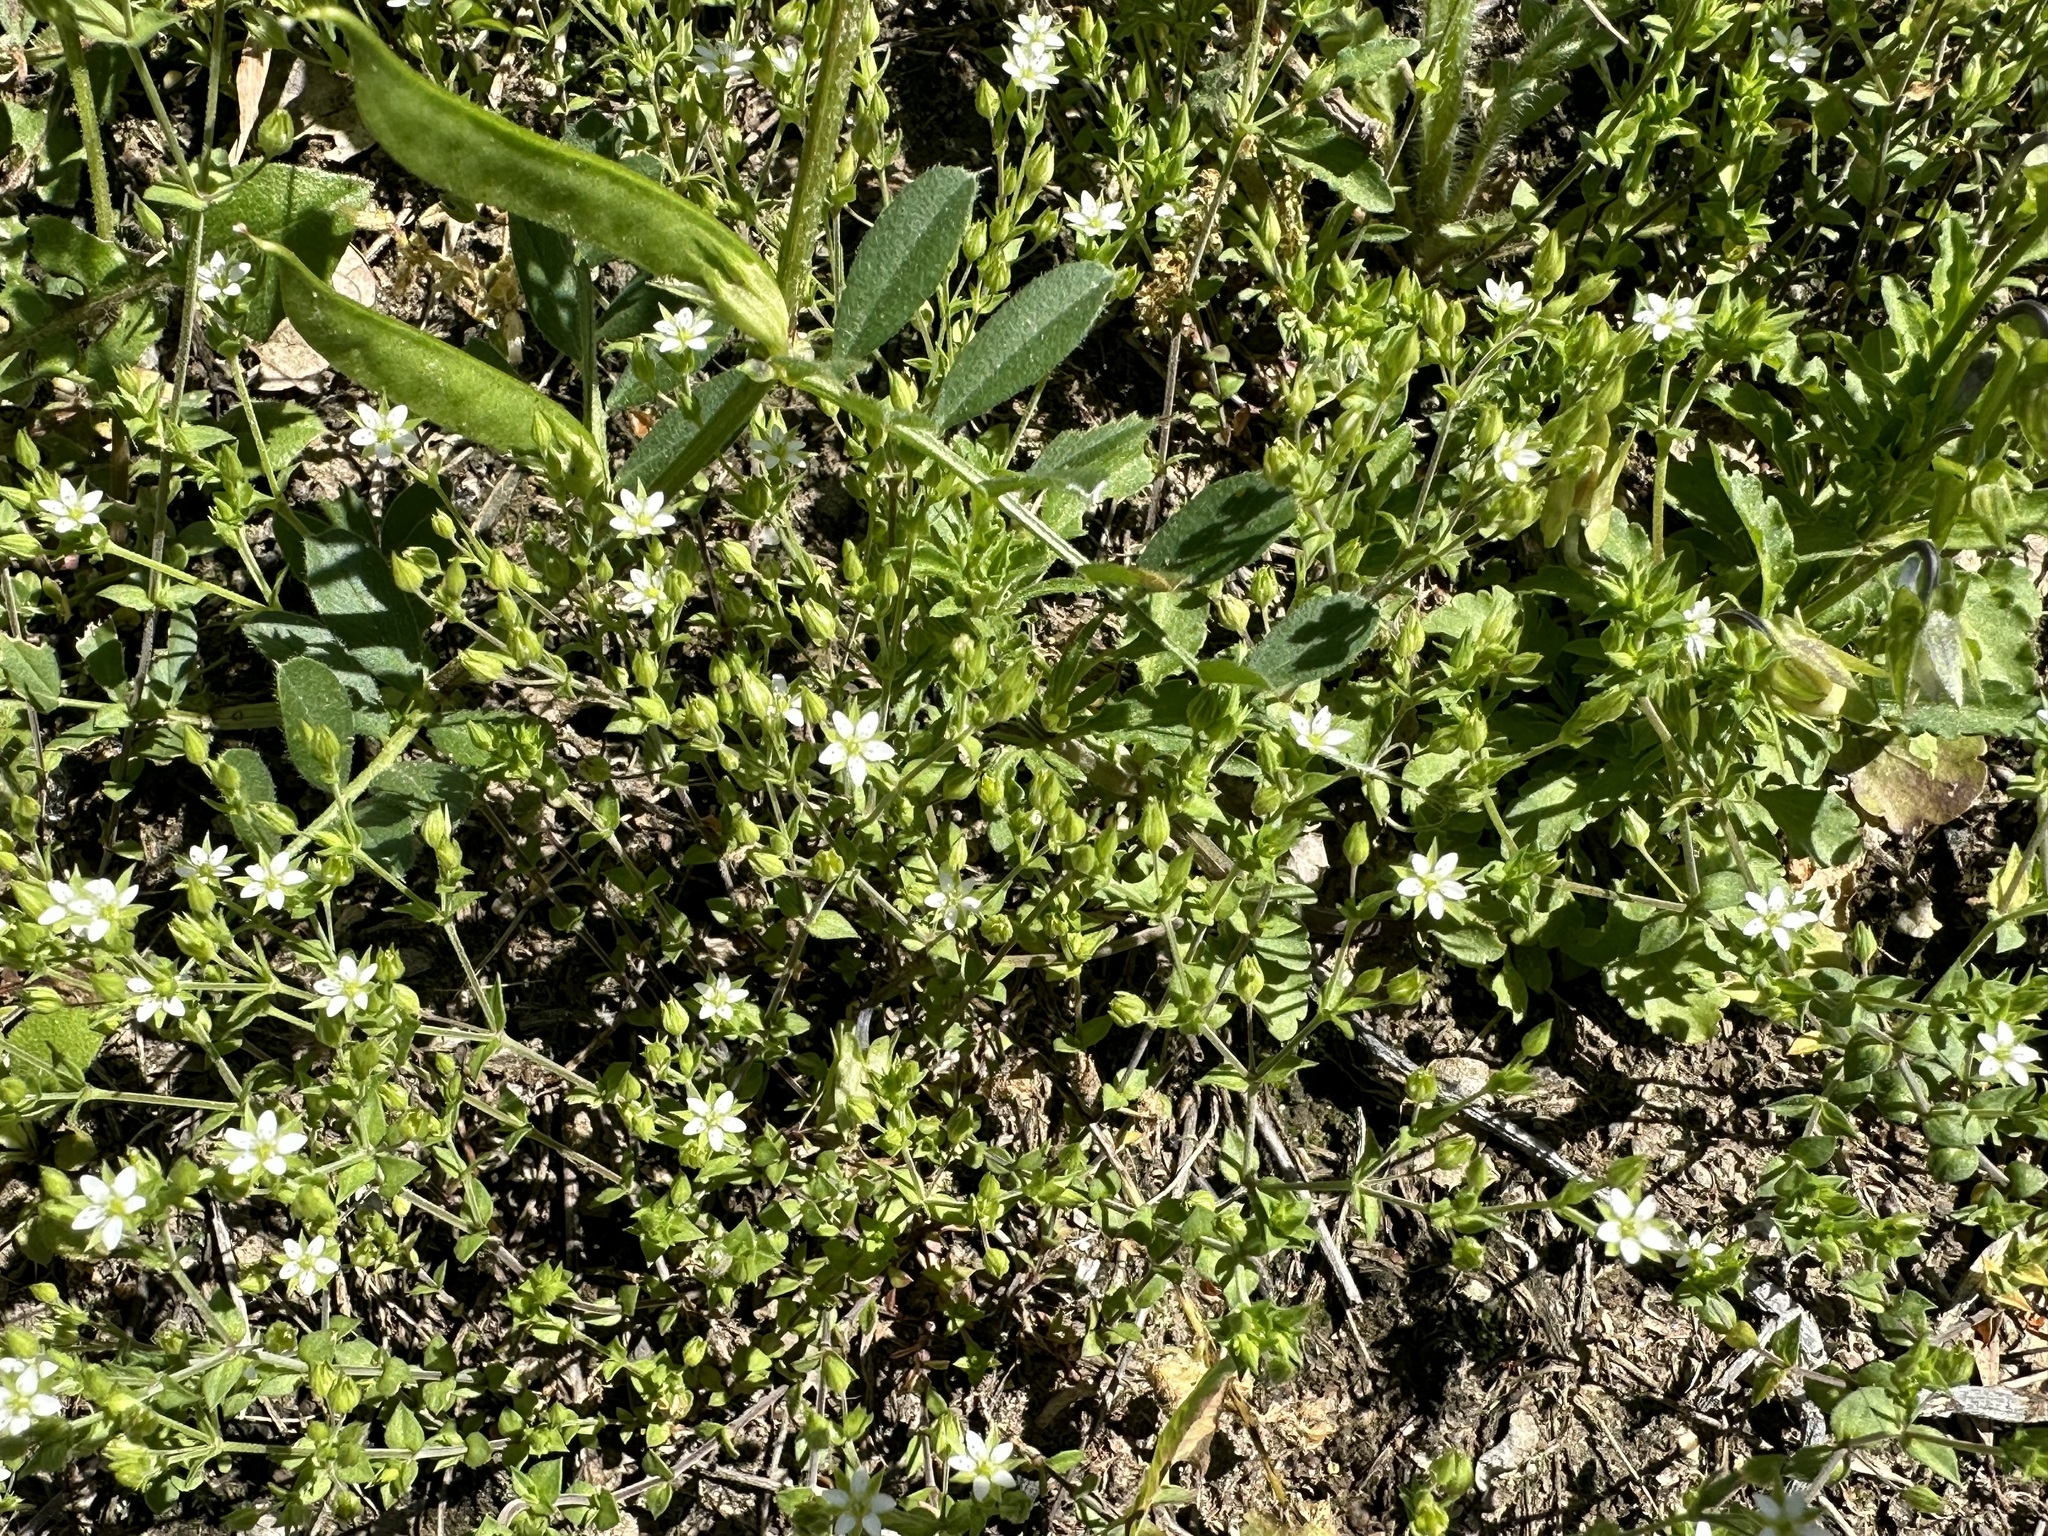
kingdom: Plantae
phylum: Tracheophyta
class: Magnoliopsida
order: Caryophyllales
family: Caryophyllaceae
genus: Arenaria
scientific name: Arenaria serpyllifolia
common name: Thyme-leaved sandwort
